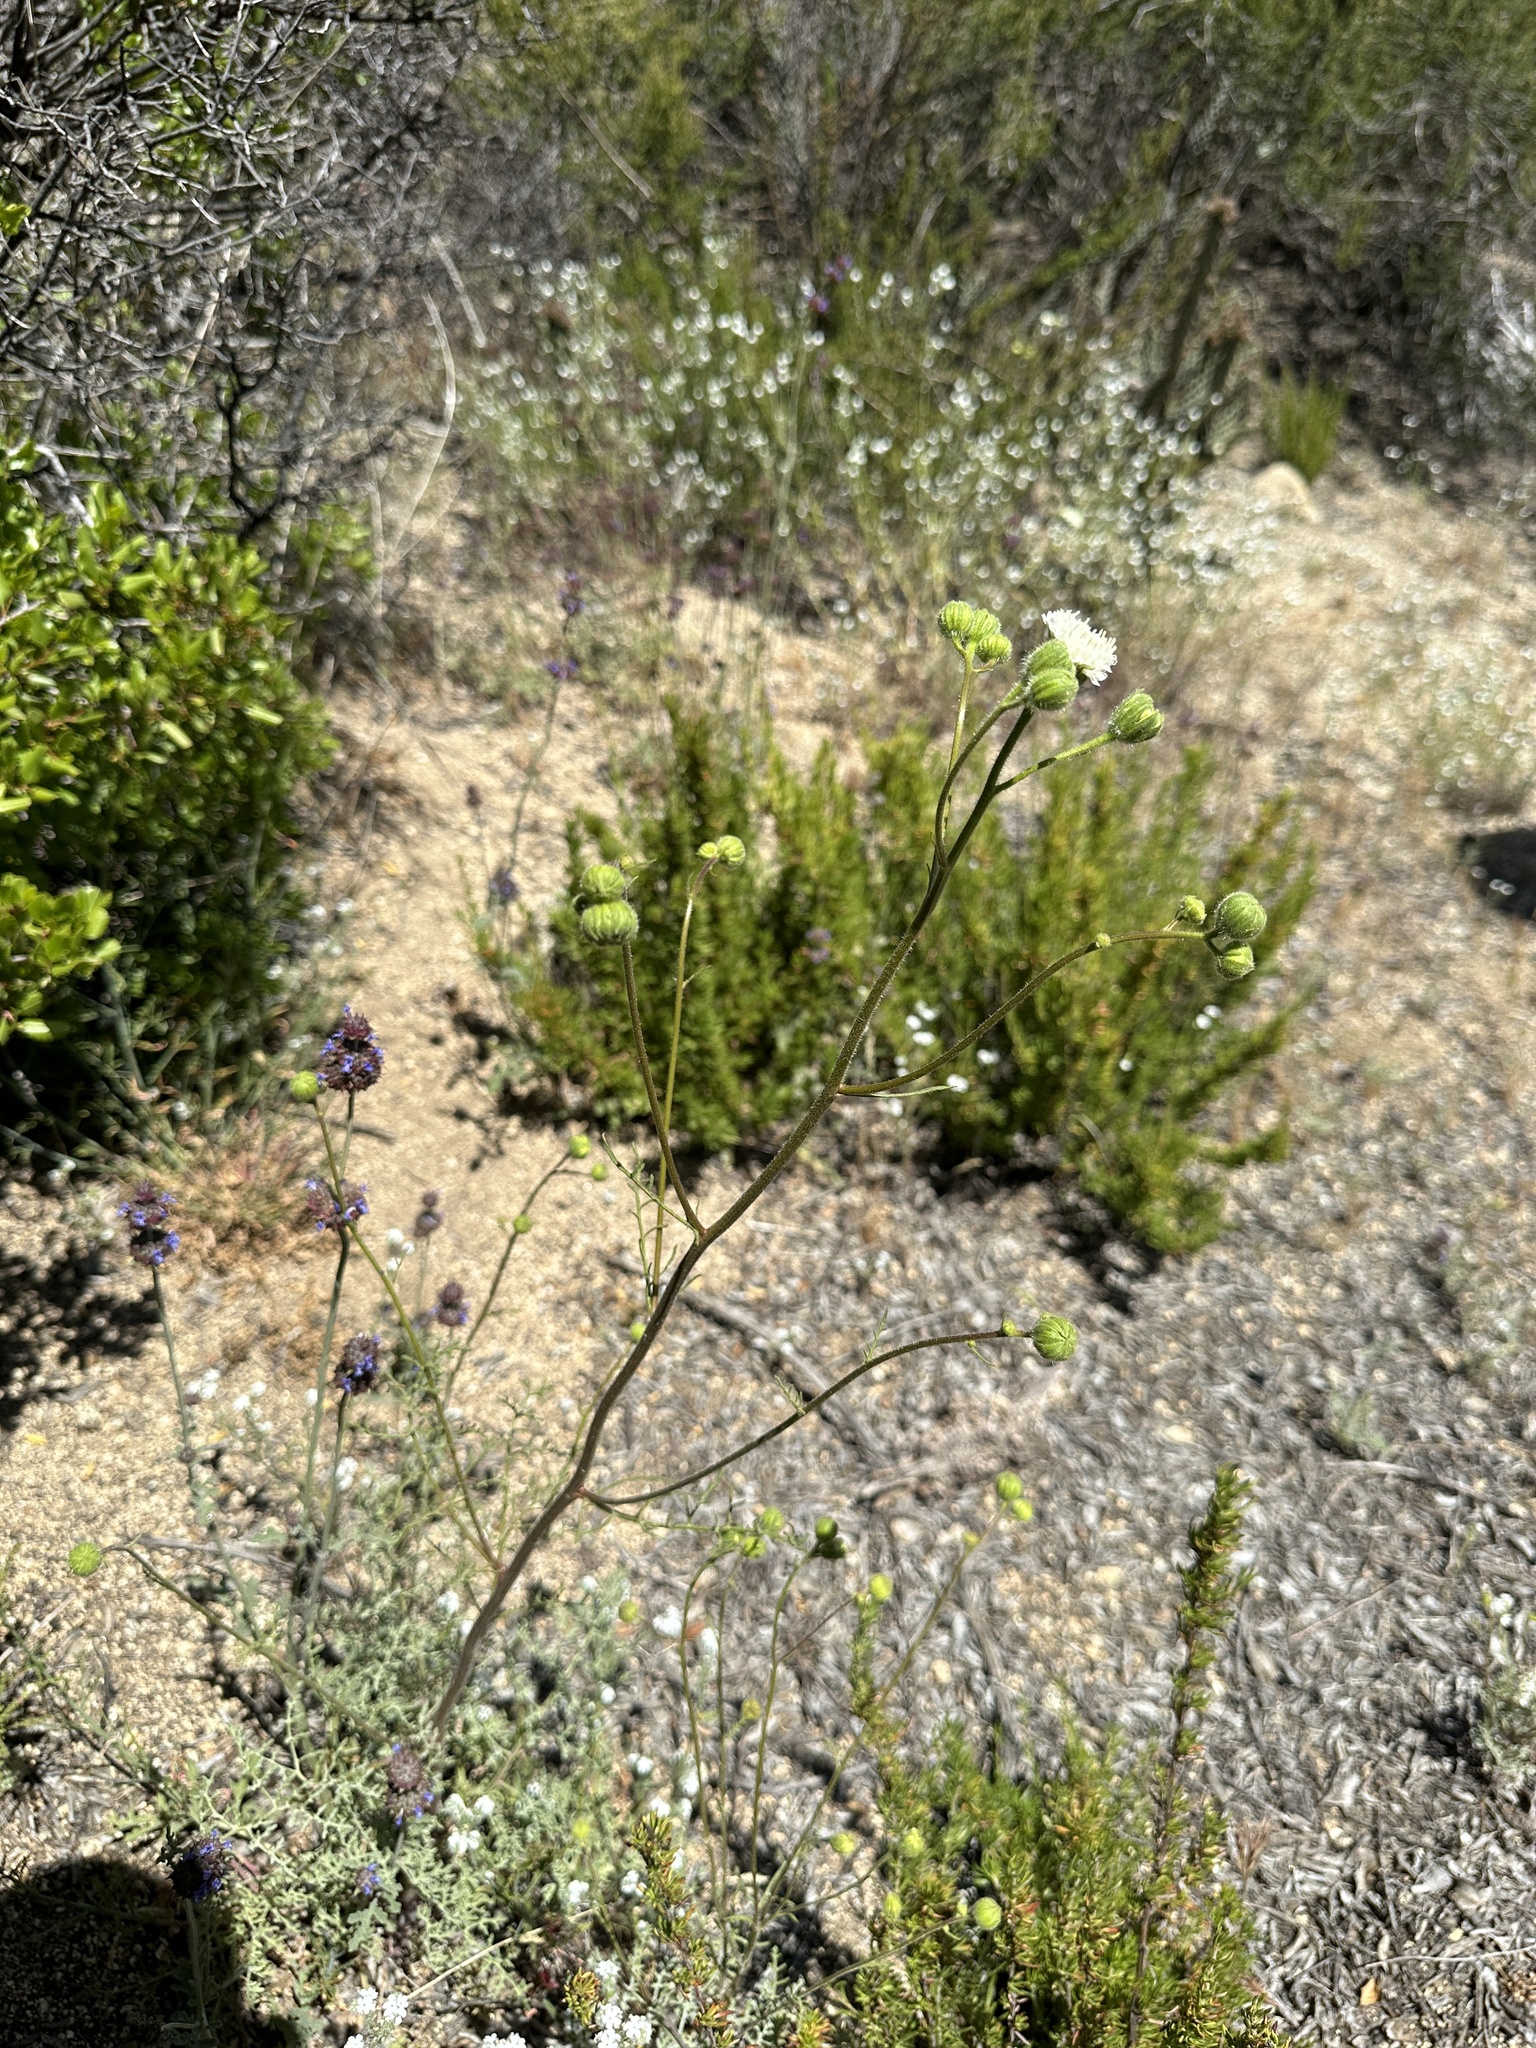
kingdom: Plantae
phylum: Tracheophyta
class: Magnoliopsida
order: Asterales
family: Asteraceae
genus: Chaenactis
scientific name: Chaenactis artemisiifolia
